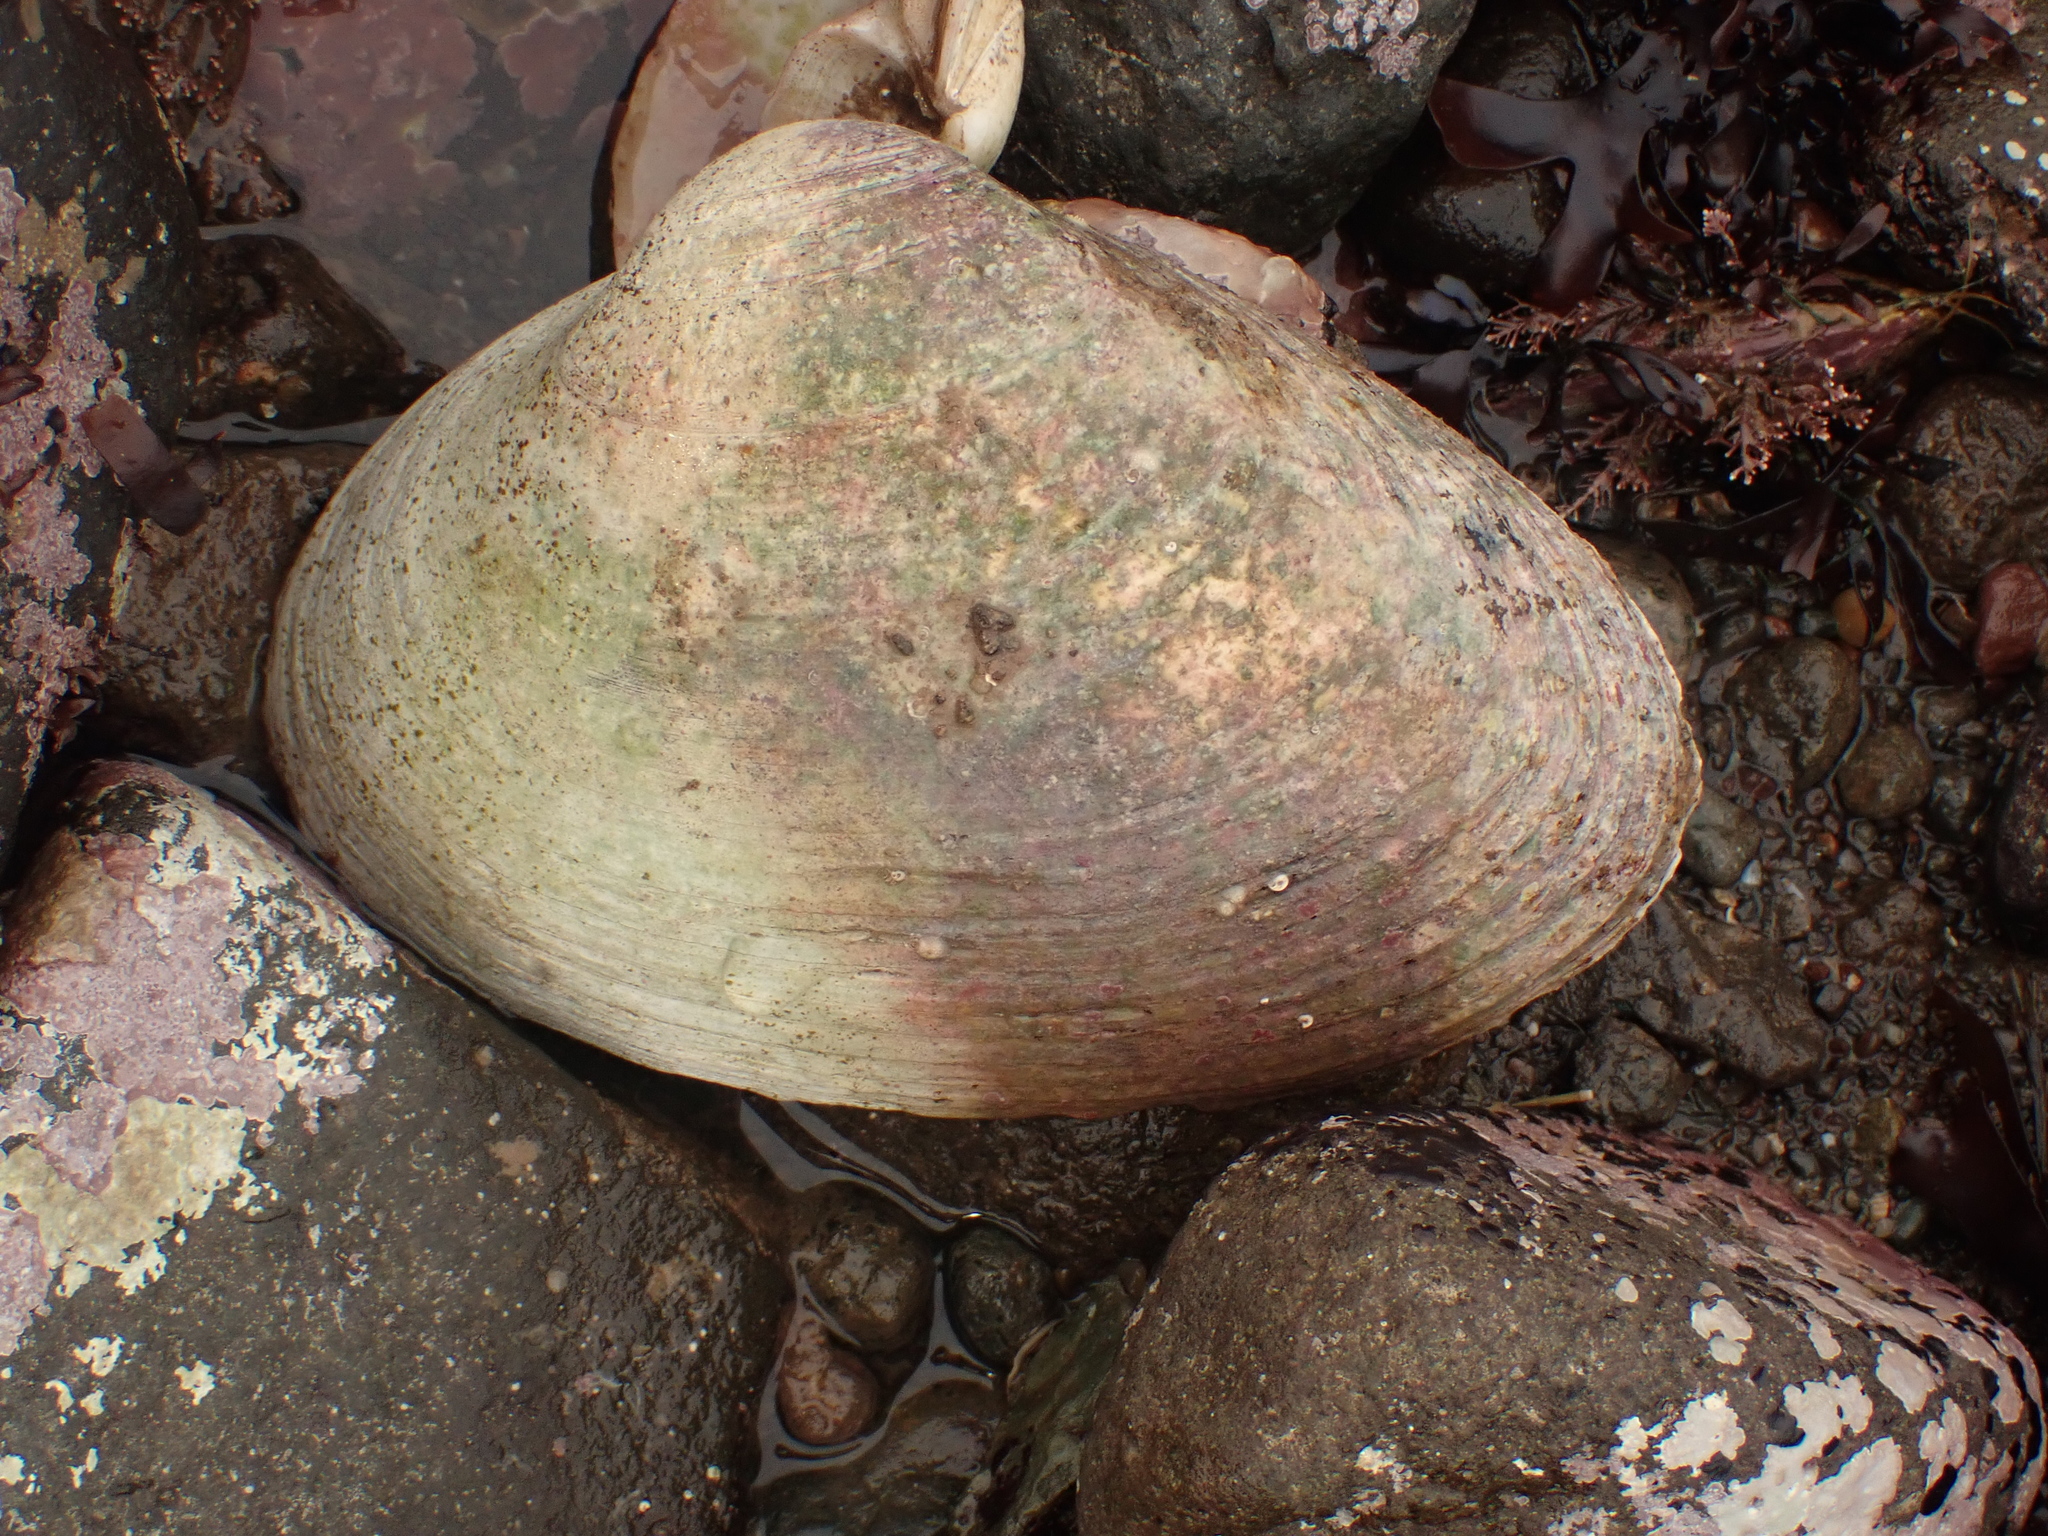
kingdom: Animalia
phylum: Mollusca
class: Bivalvia
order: Venerida
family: Mactridae
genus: Spisula
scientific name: Spisula solidissima
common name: Atlantic surf clam
